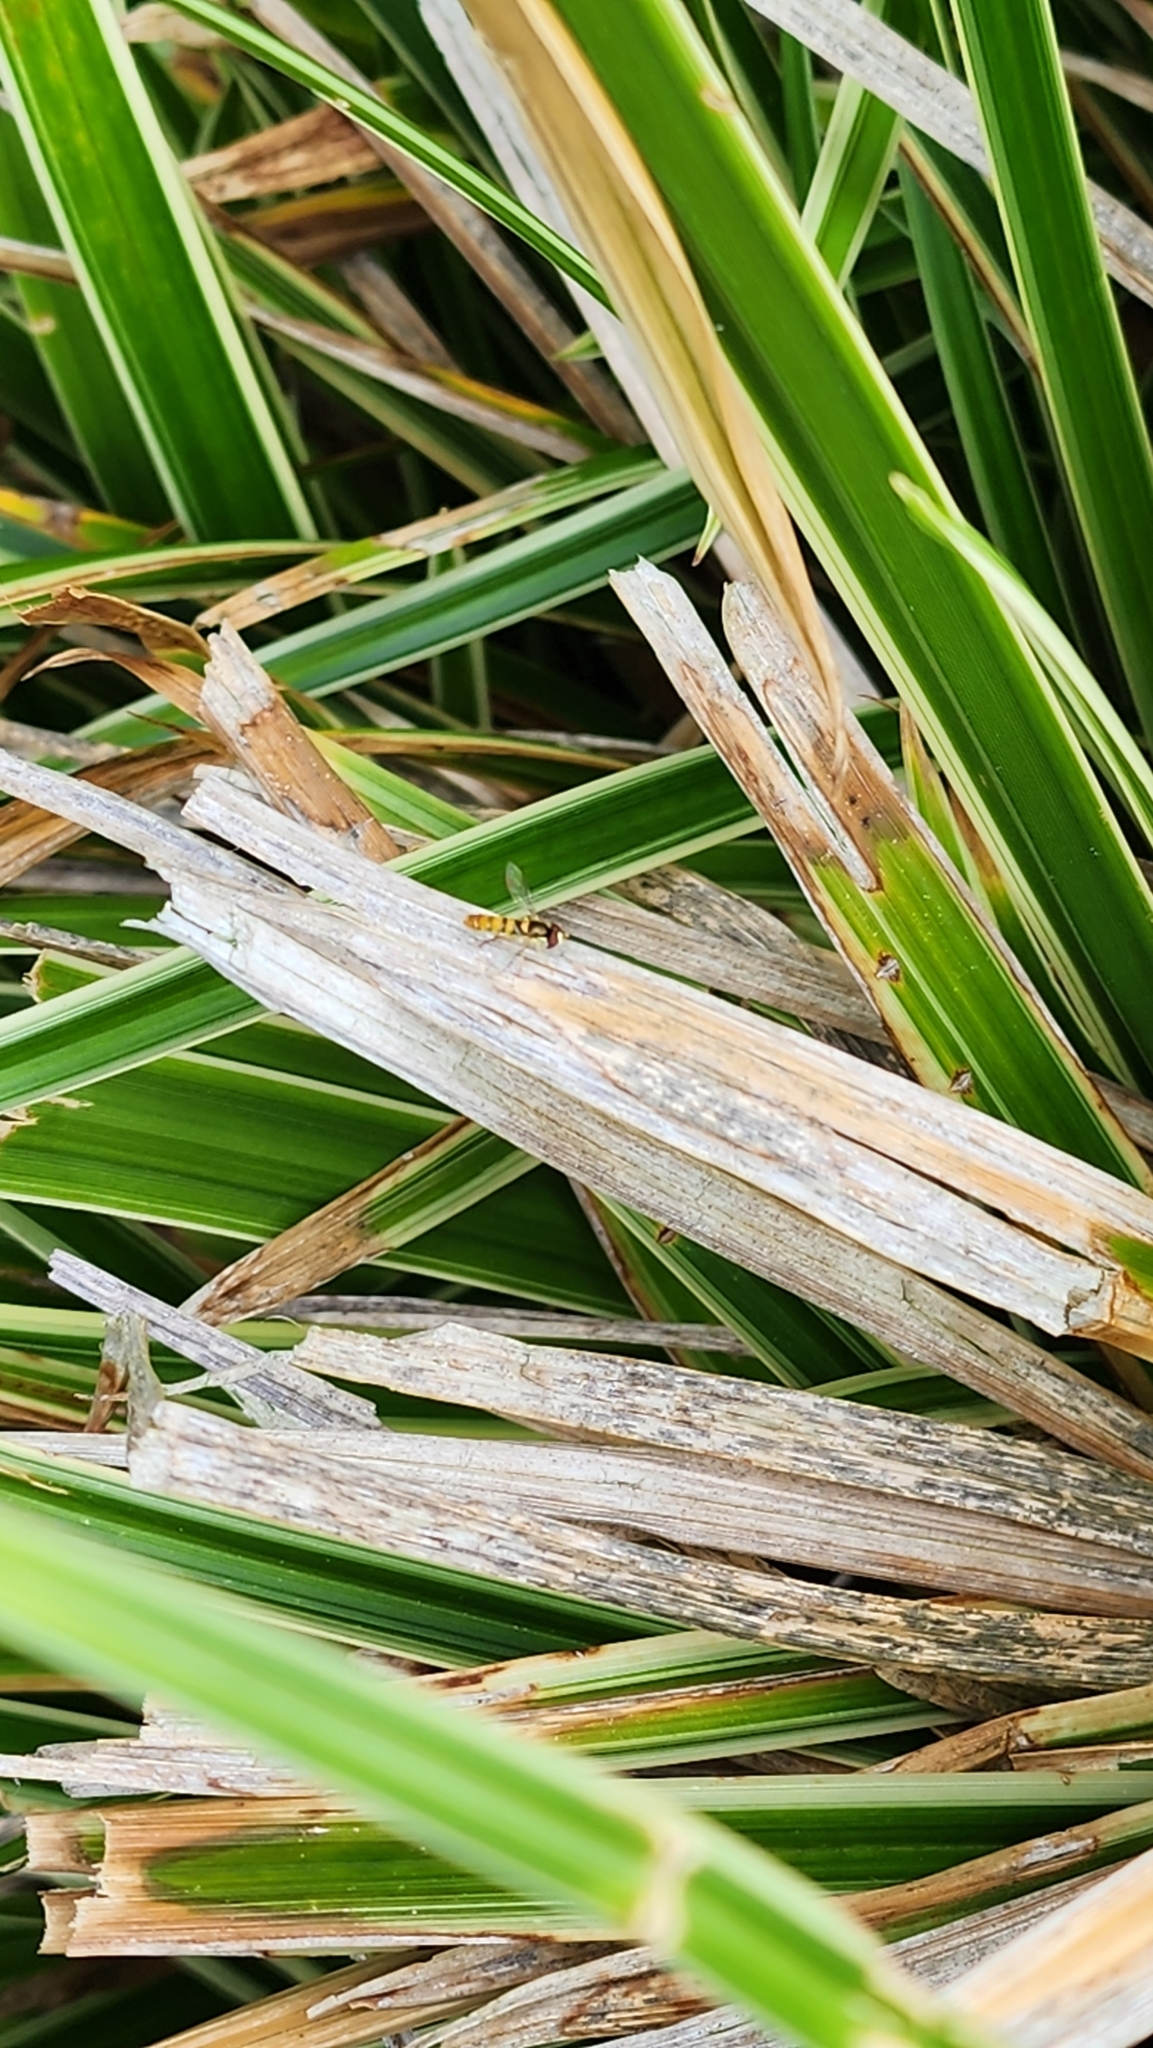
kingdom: Animalia
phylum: Arthropoda
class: Insecta
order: Diptera
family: Syrphidae
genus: Sphaerophoria
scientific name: Sphaerophoria contigua
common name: Tufted globetail
